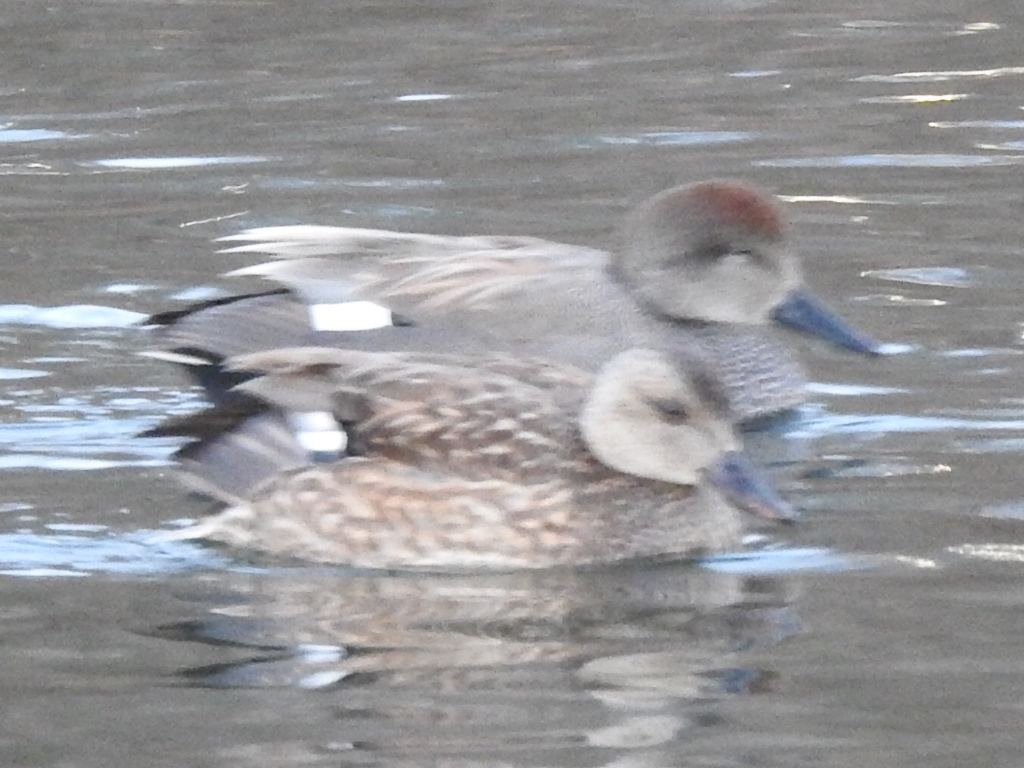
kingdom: Animalia
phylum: Chordata
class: Aves
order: Anseriformes
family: Anatidae
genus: Mareca
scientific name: Mareca strepera
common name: Gadwall
